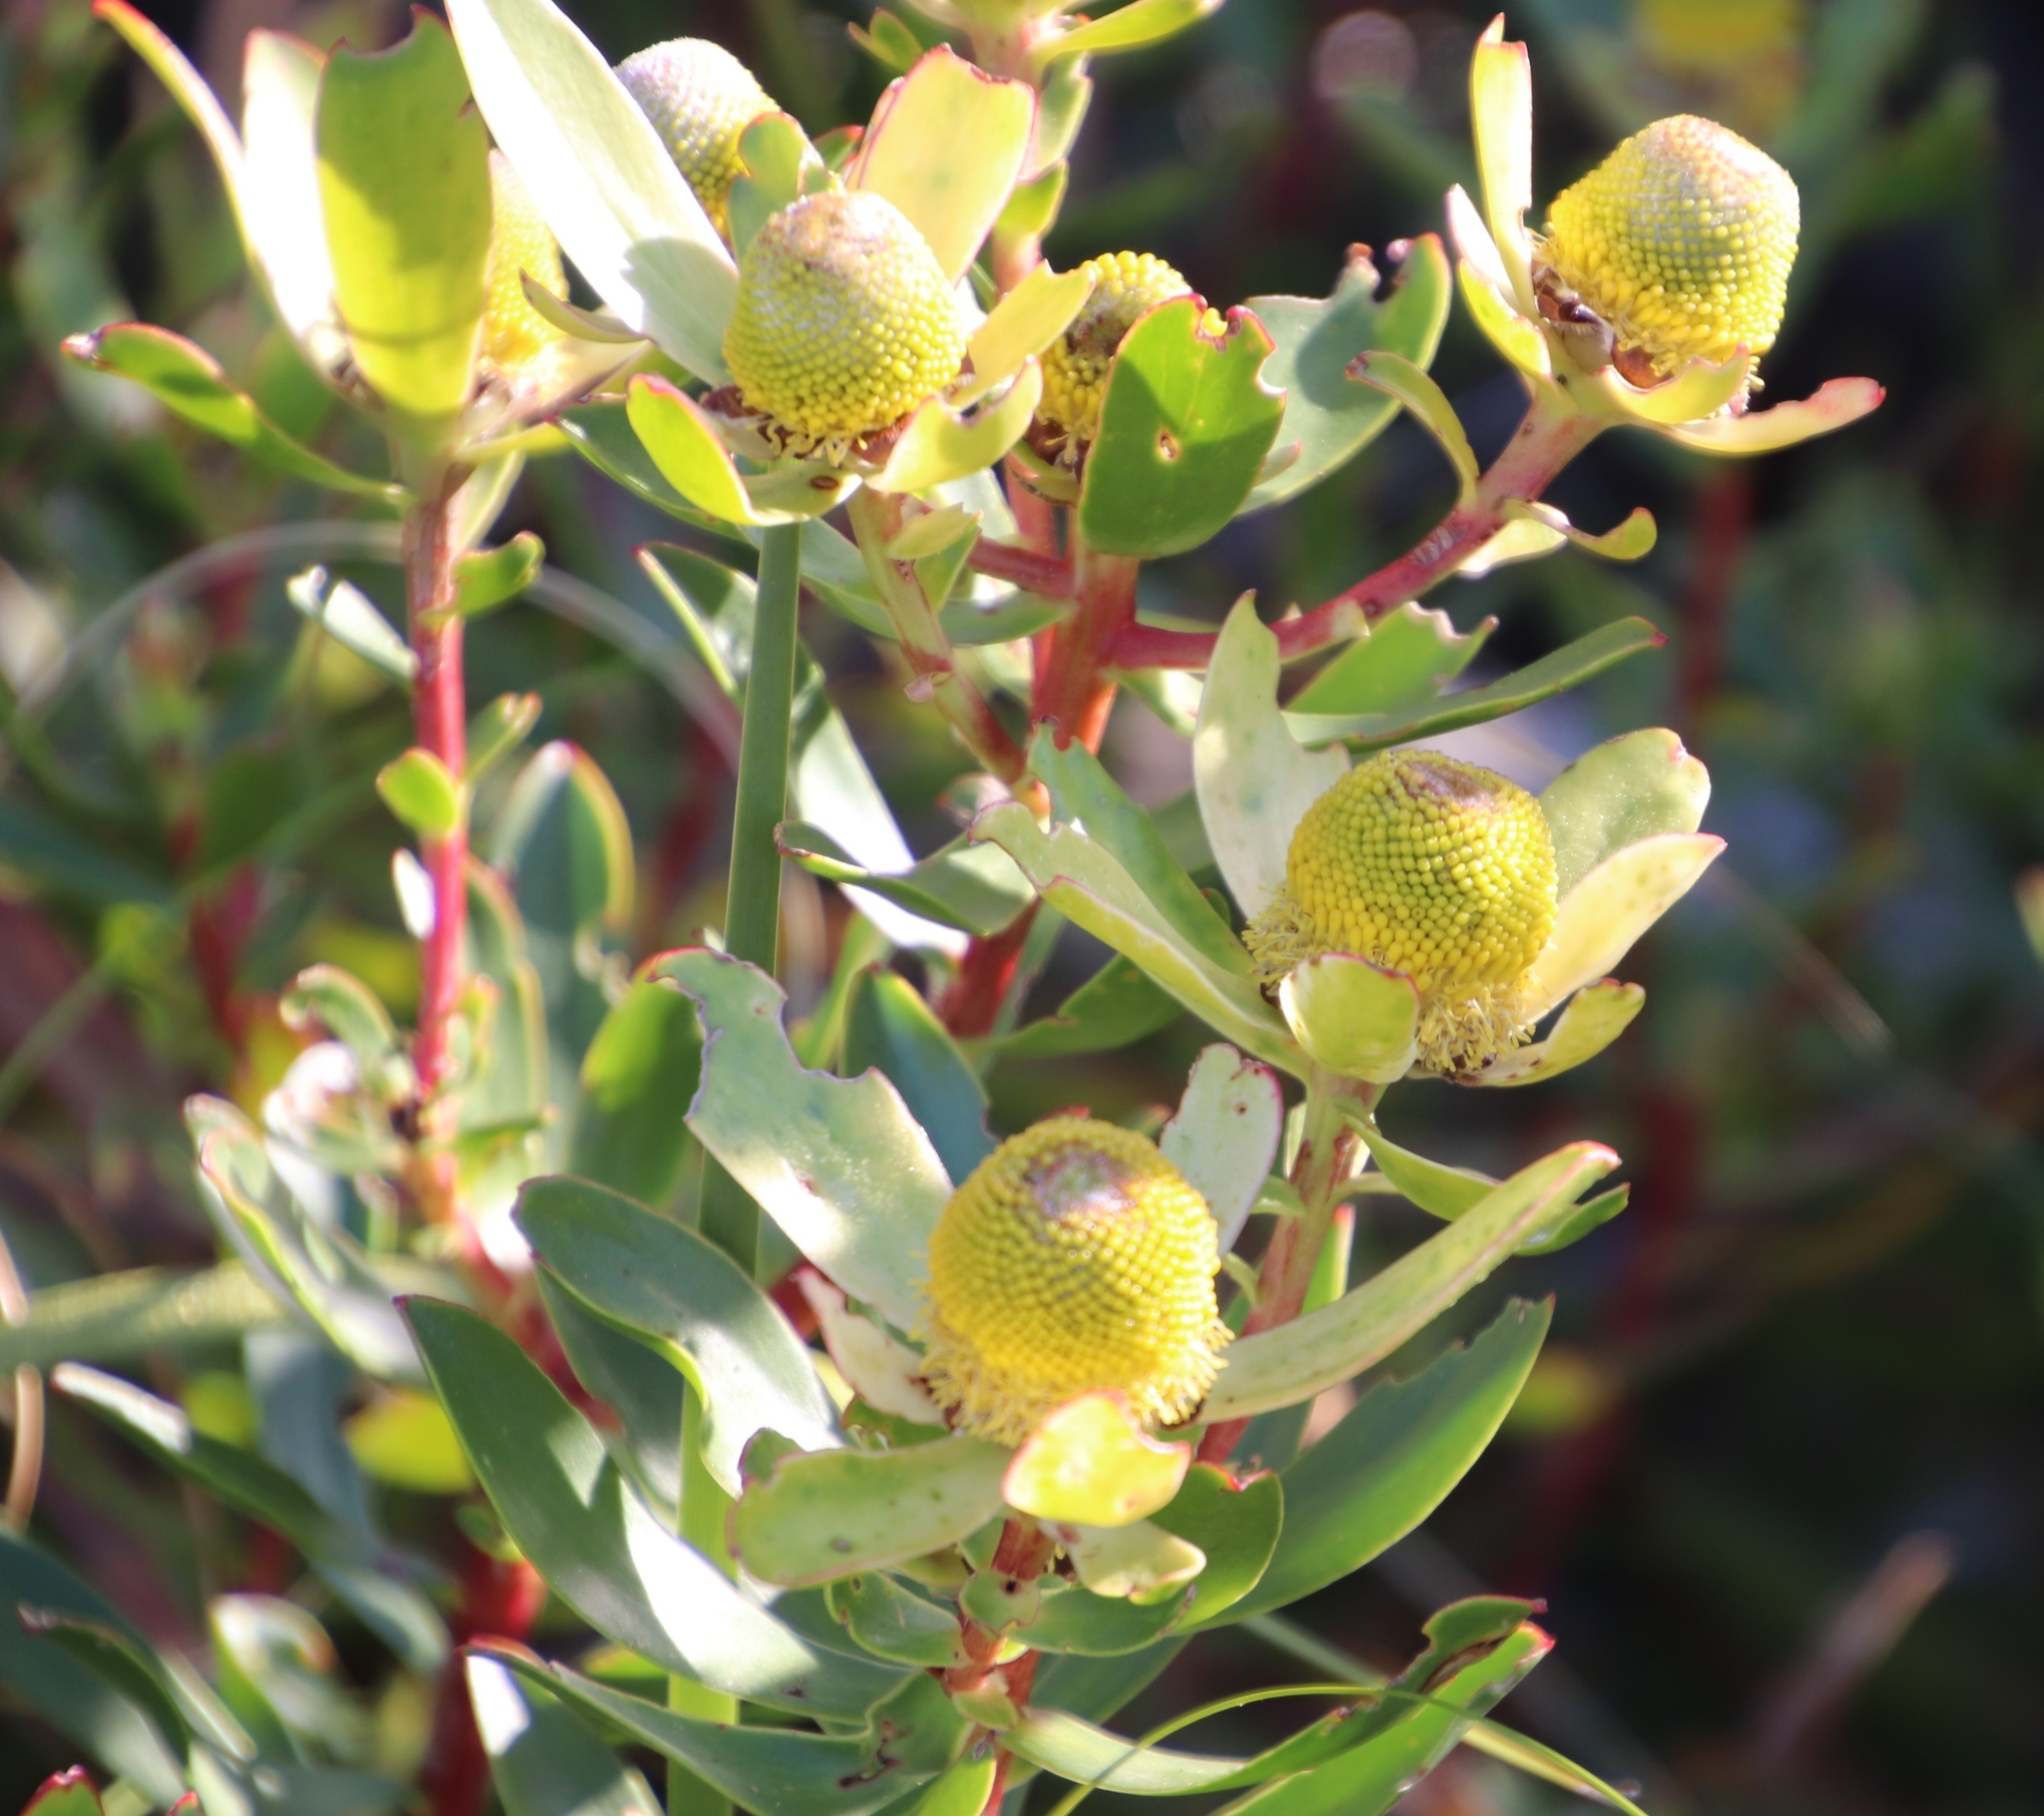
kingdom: Plantae
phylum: Tracheophyta
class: Magnoliopsida
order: Proteales
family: Proteaceae
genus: Leucadendron
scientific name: Leucadendron spissifolium
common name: Spear-leaf conebush
